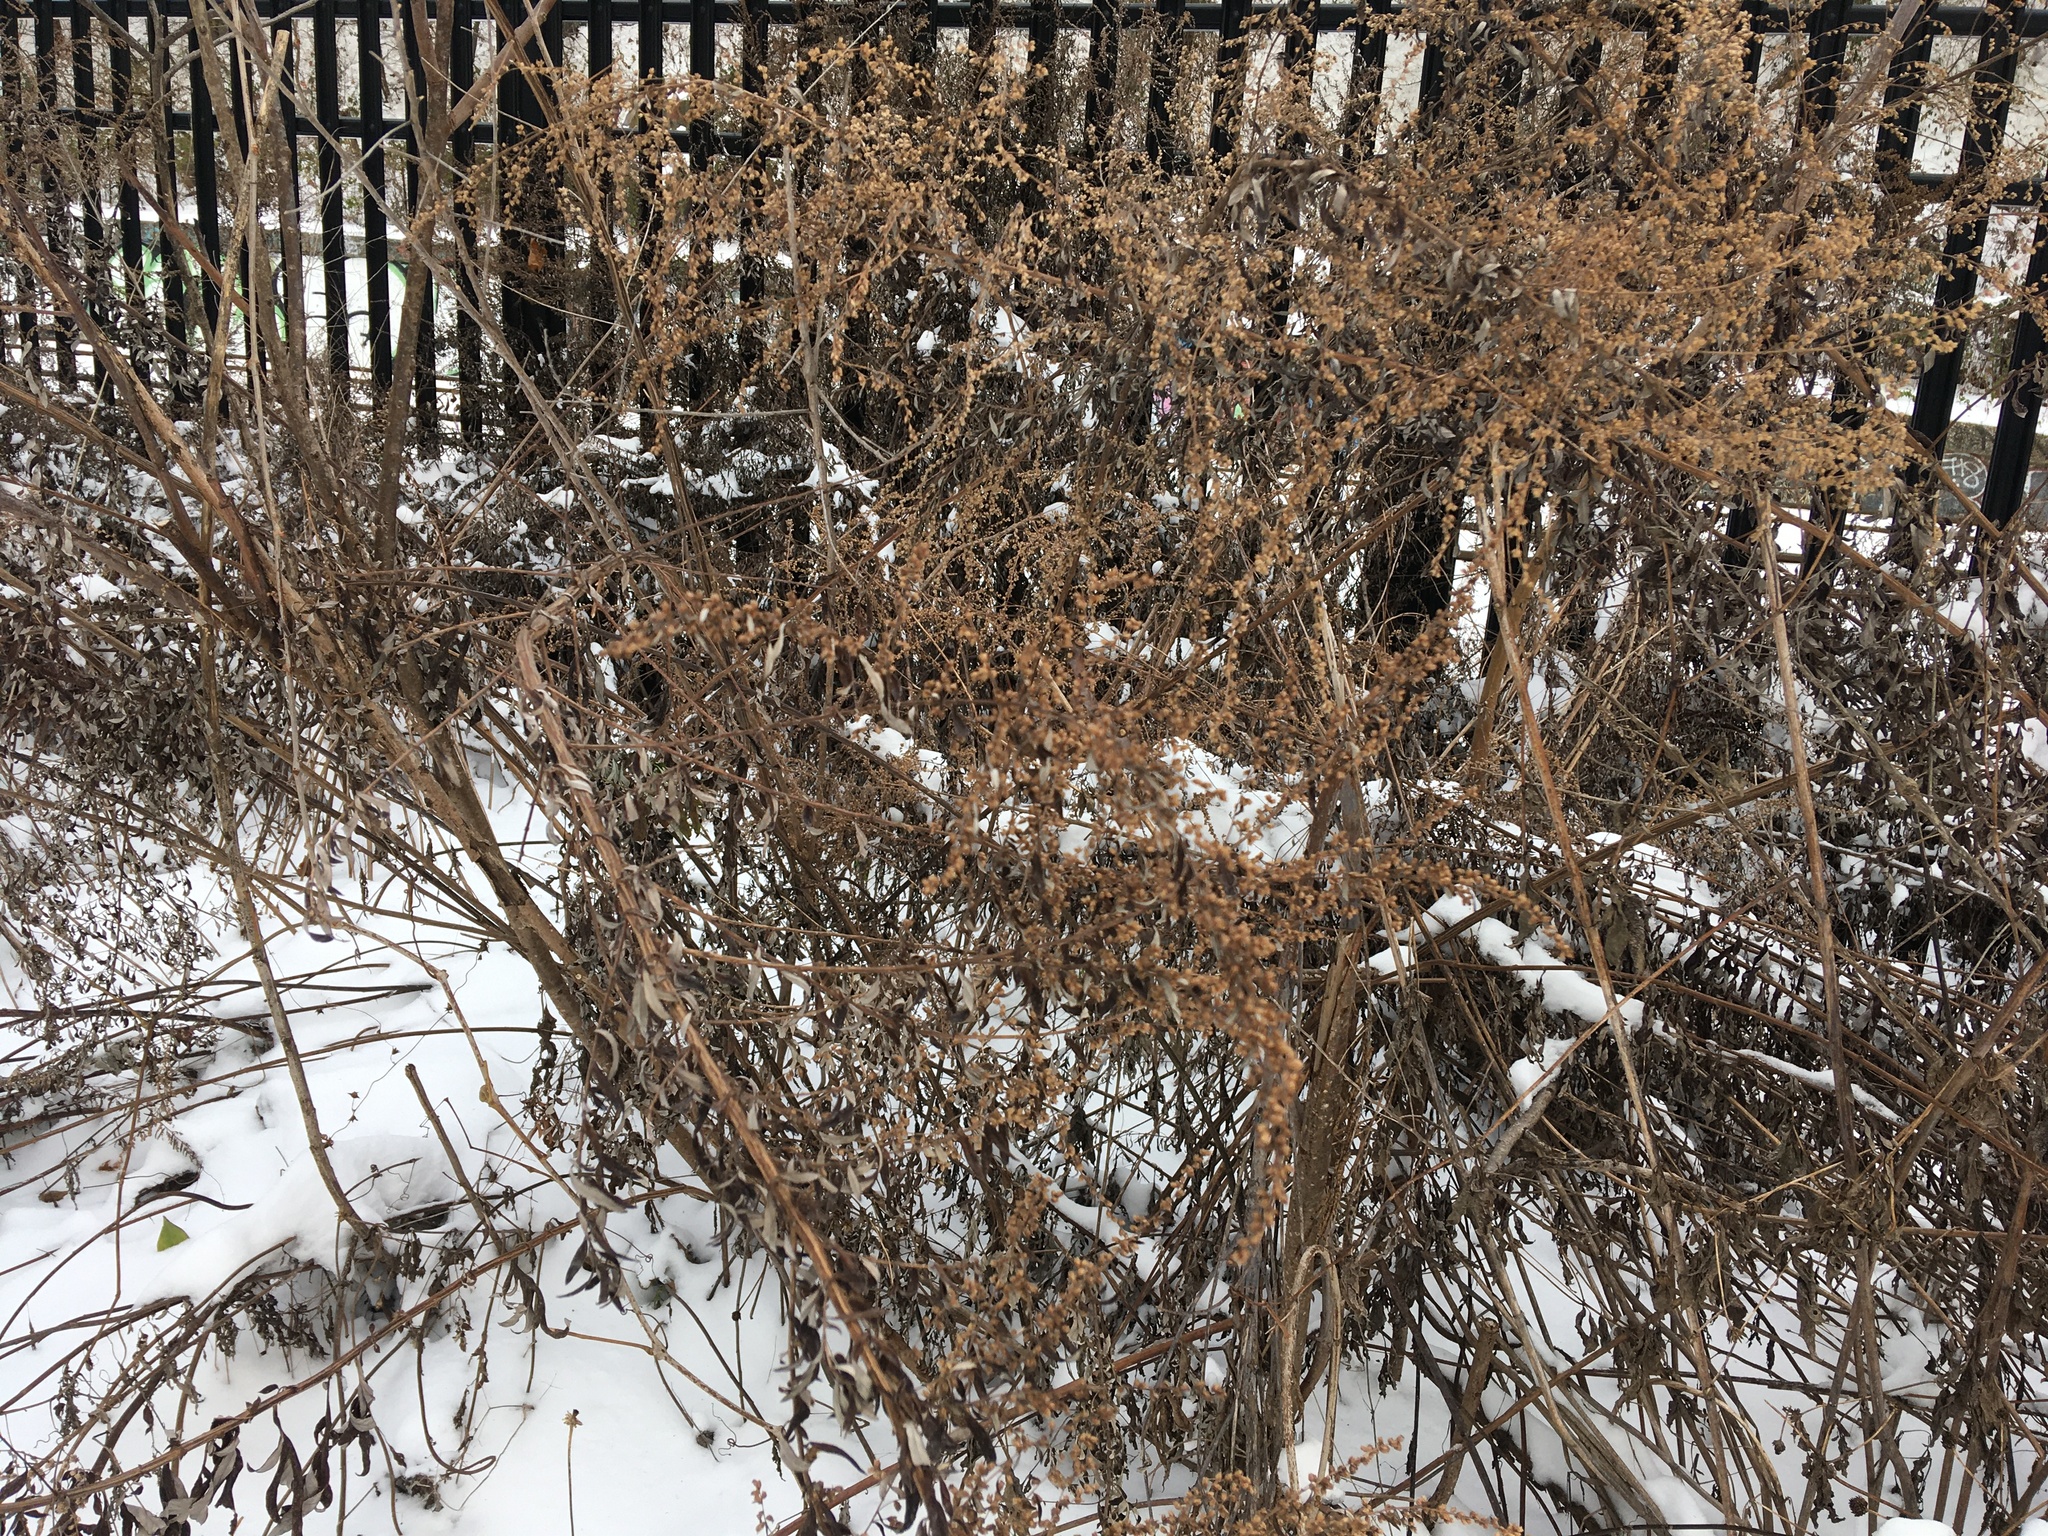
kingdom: Plantae
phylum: Tracheophyta
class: Magnoliopsida
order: Asterales
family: Asteraceae
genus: Artemisia
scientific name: Artemisia vulgaris
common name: Mugwort
